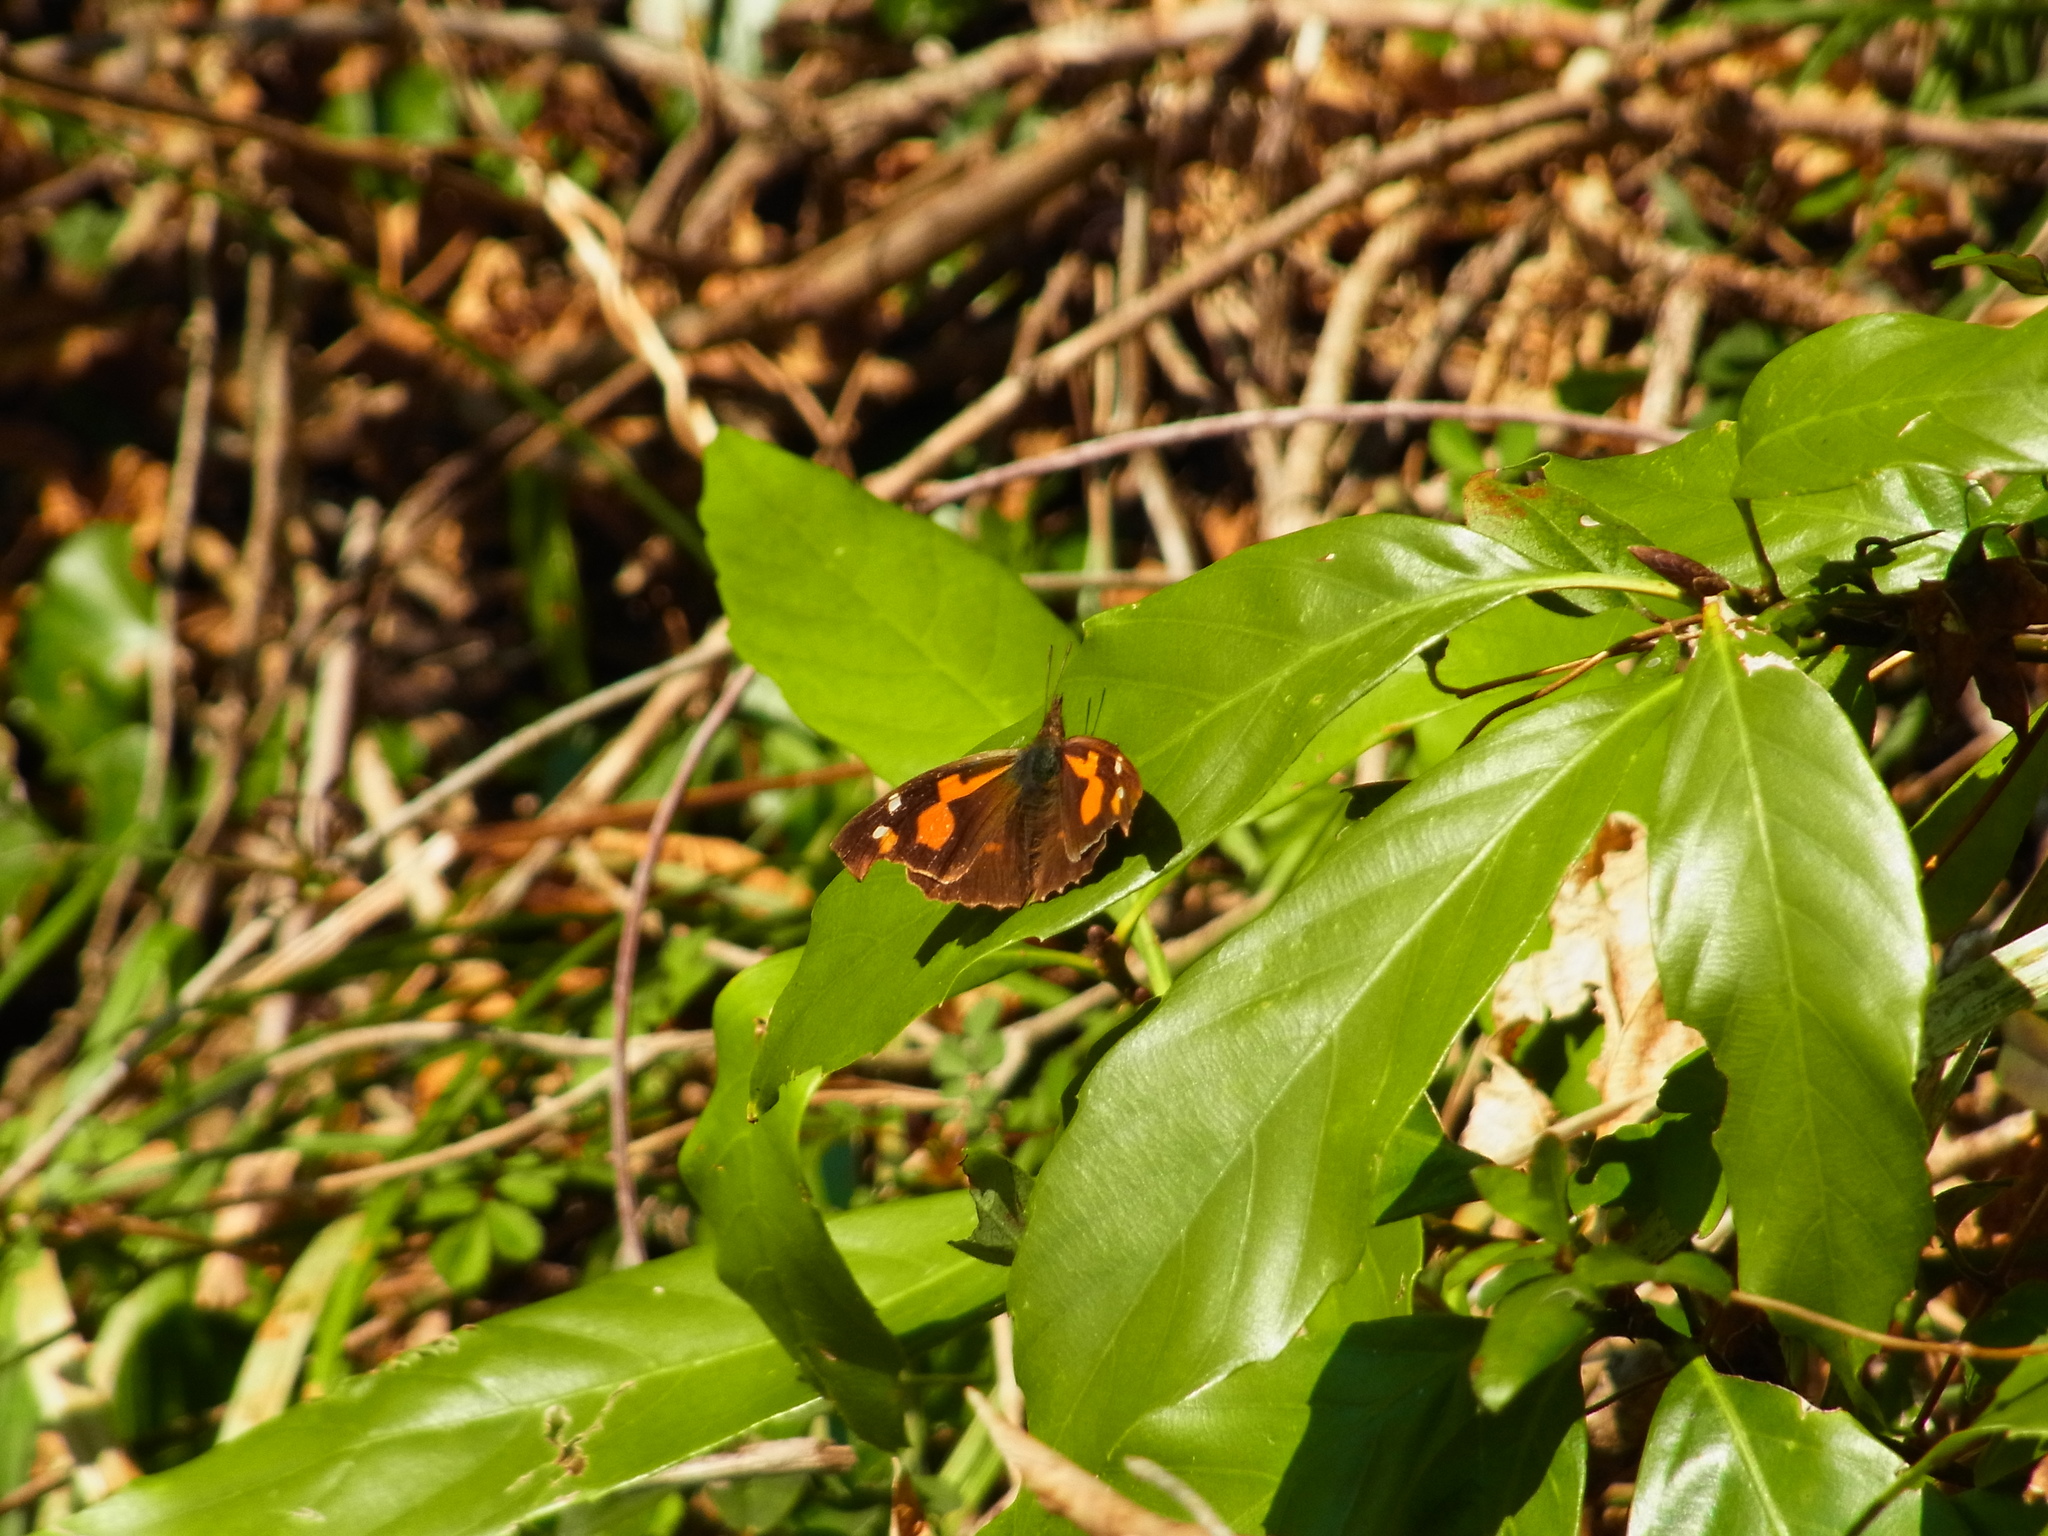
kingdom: Animalia
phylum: Arthropoda
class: Insecta
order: Lepidoptera
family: Nymphalidae
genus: Libythea
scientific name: Libythea lepita
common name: Common beak
